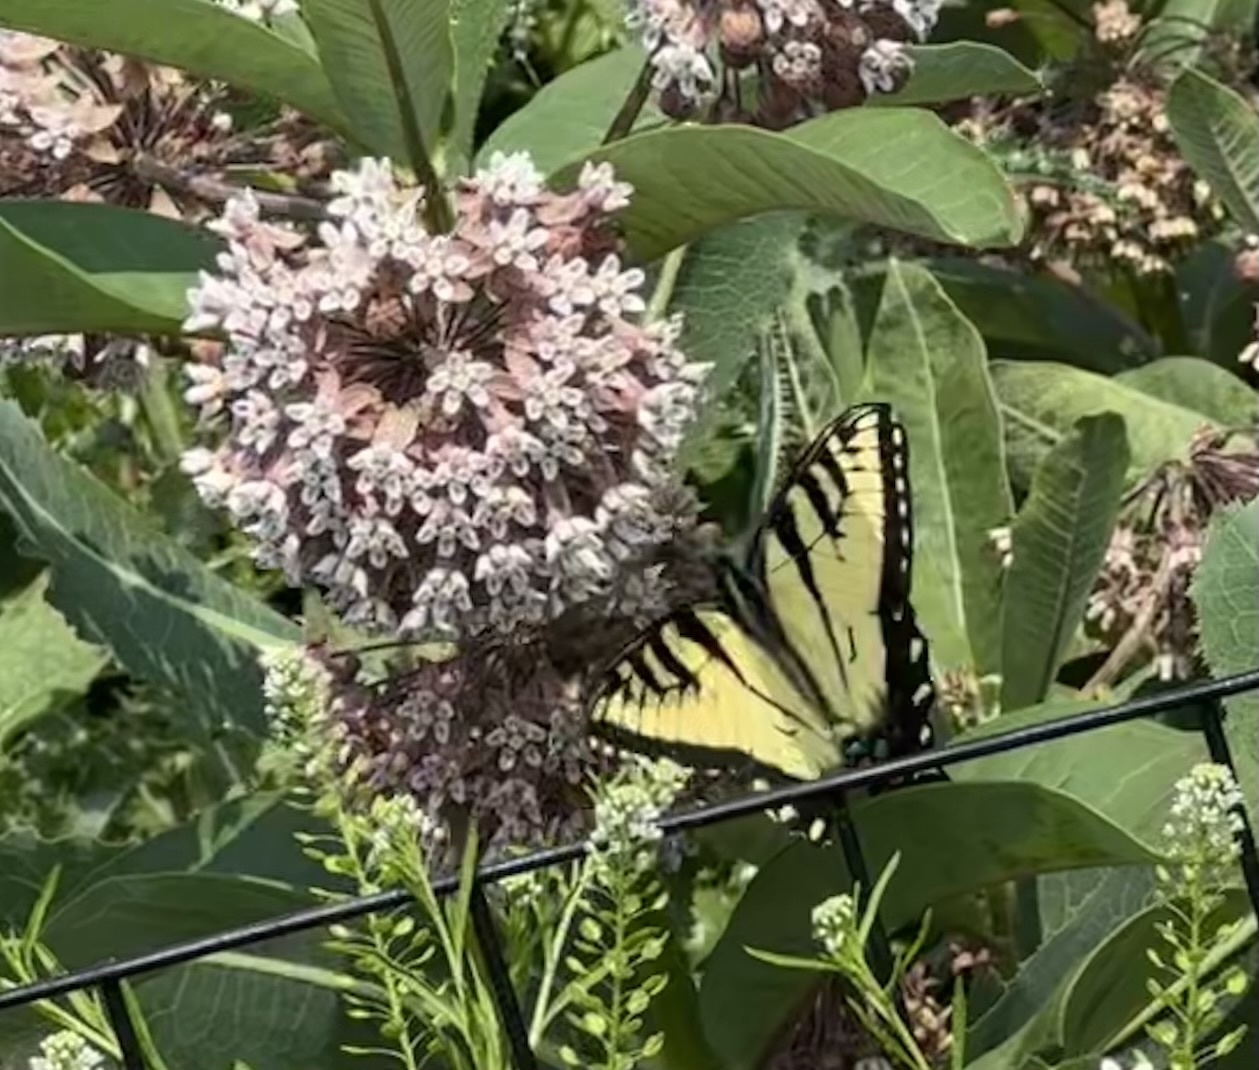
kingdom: Animalia
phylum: Arthropoda
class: Insecta
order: Lepidoptera
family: Papilionidae
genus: Papilio
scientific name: Papilio glaucus
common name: Tiger swallowtail
